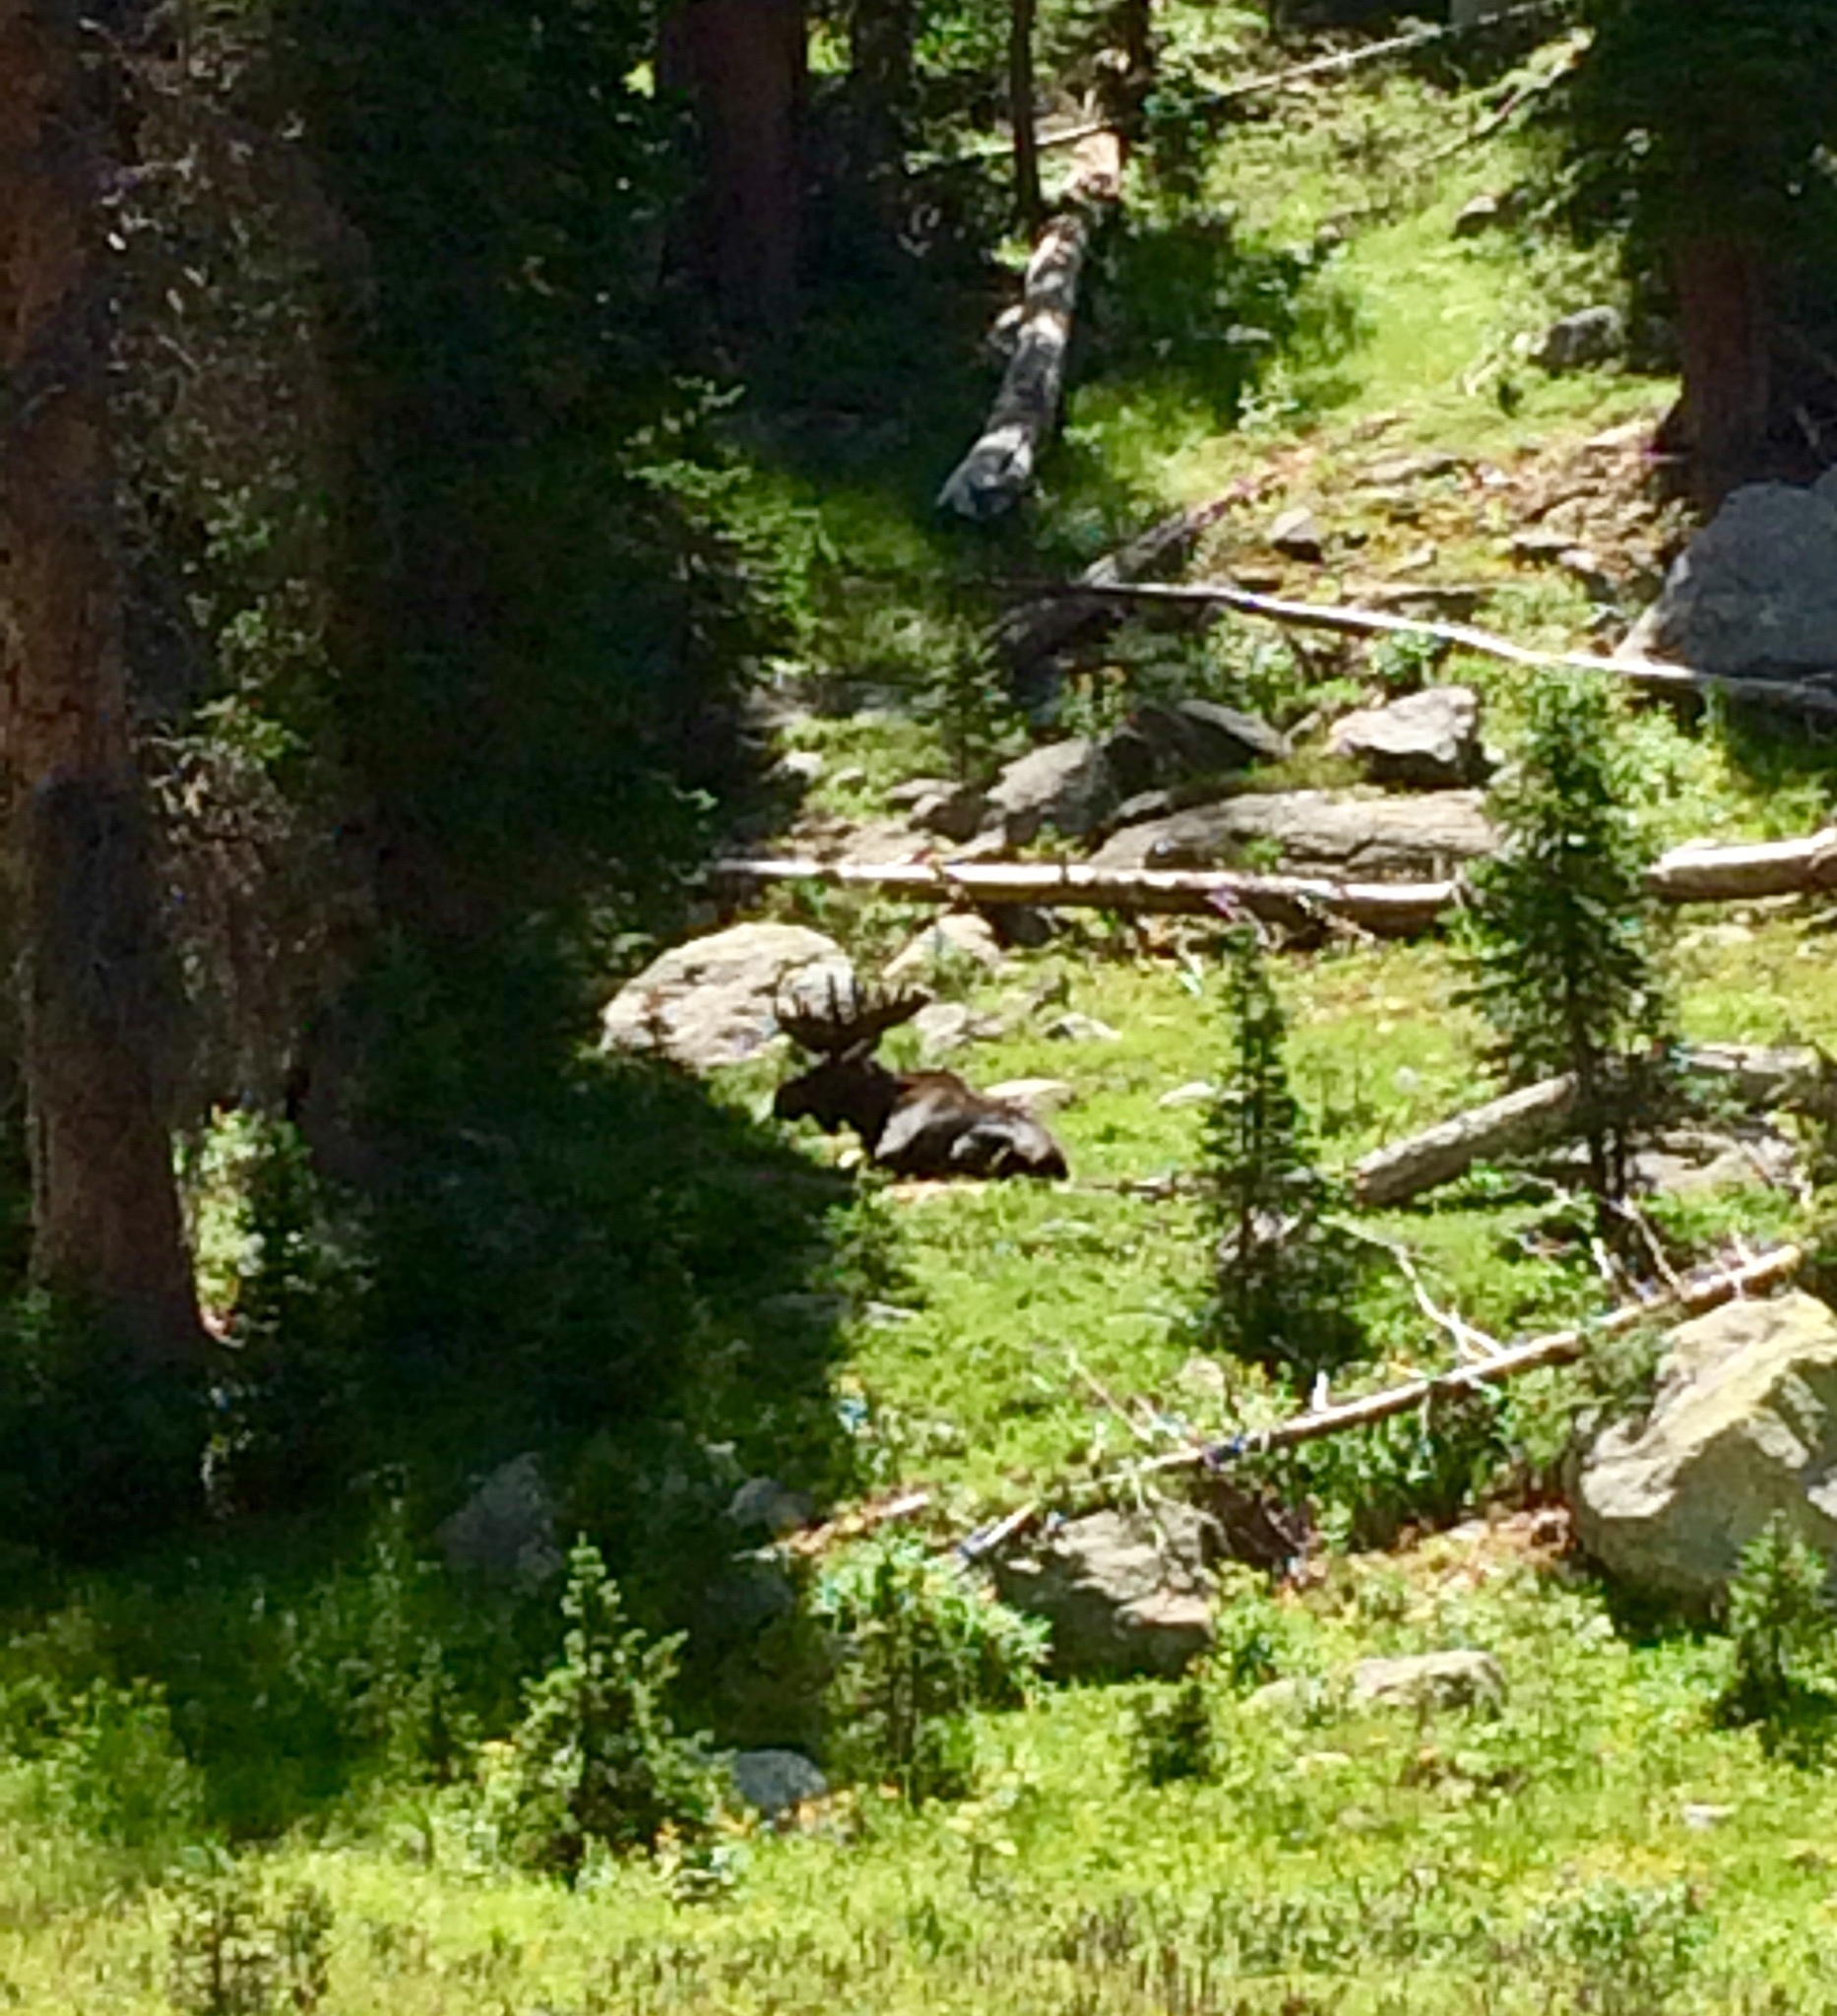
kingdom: Animalia
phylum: Chordata
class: Mammalia
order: Artiodactyla
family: Cervidae
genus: Alces
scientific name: Alces alces
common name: Moose
